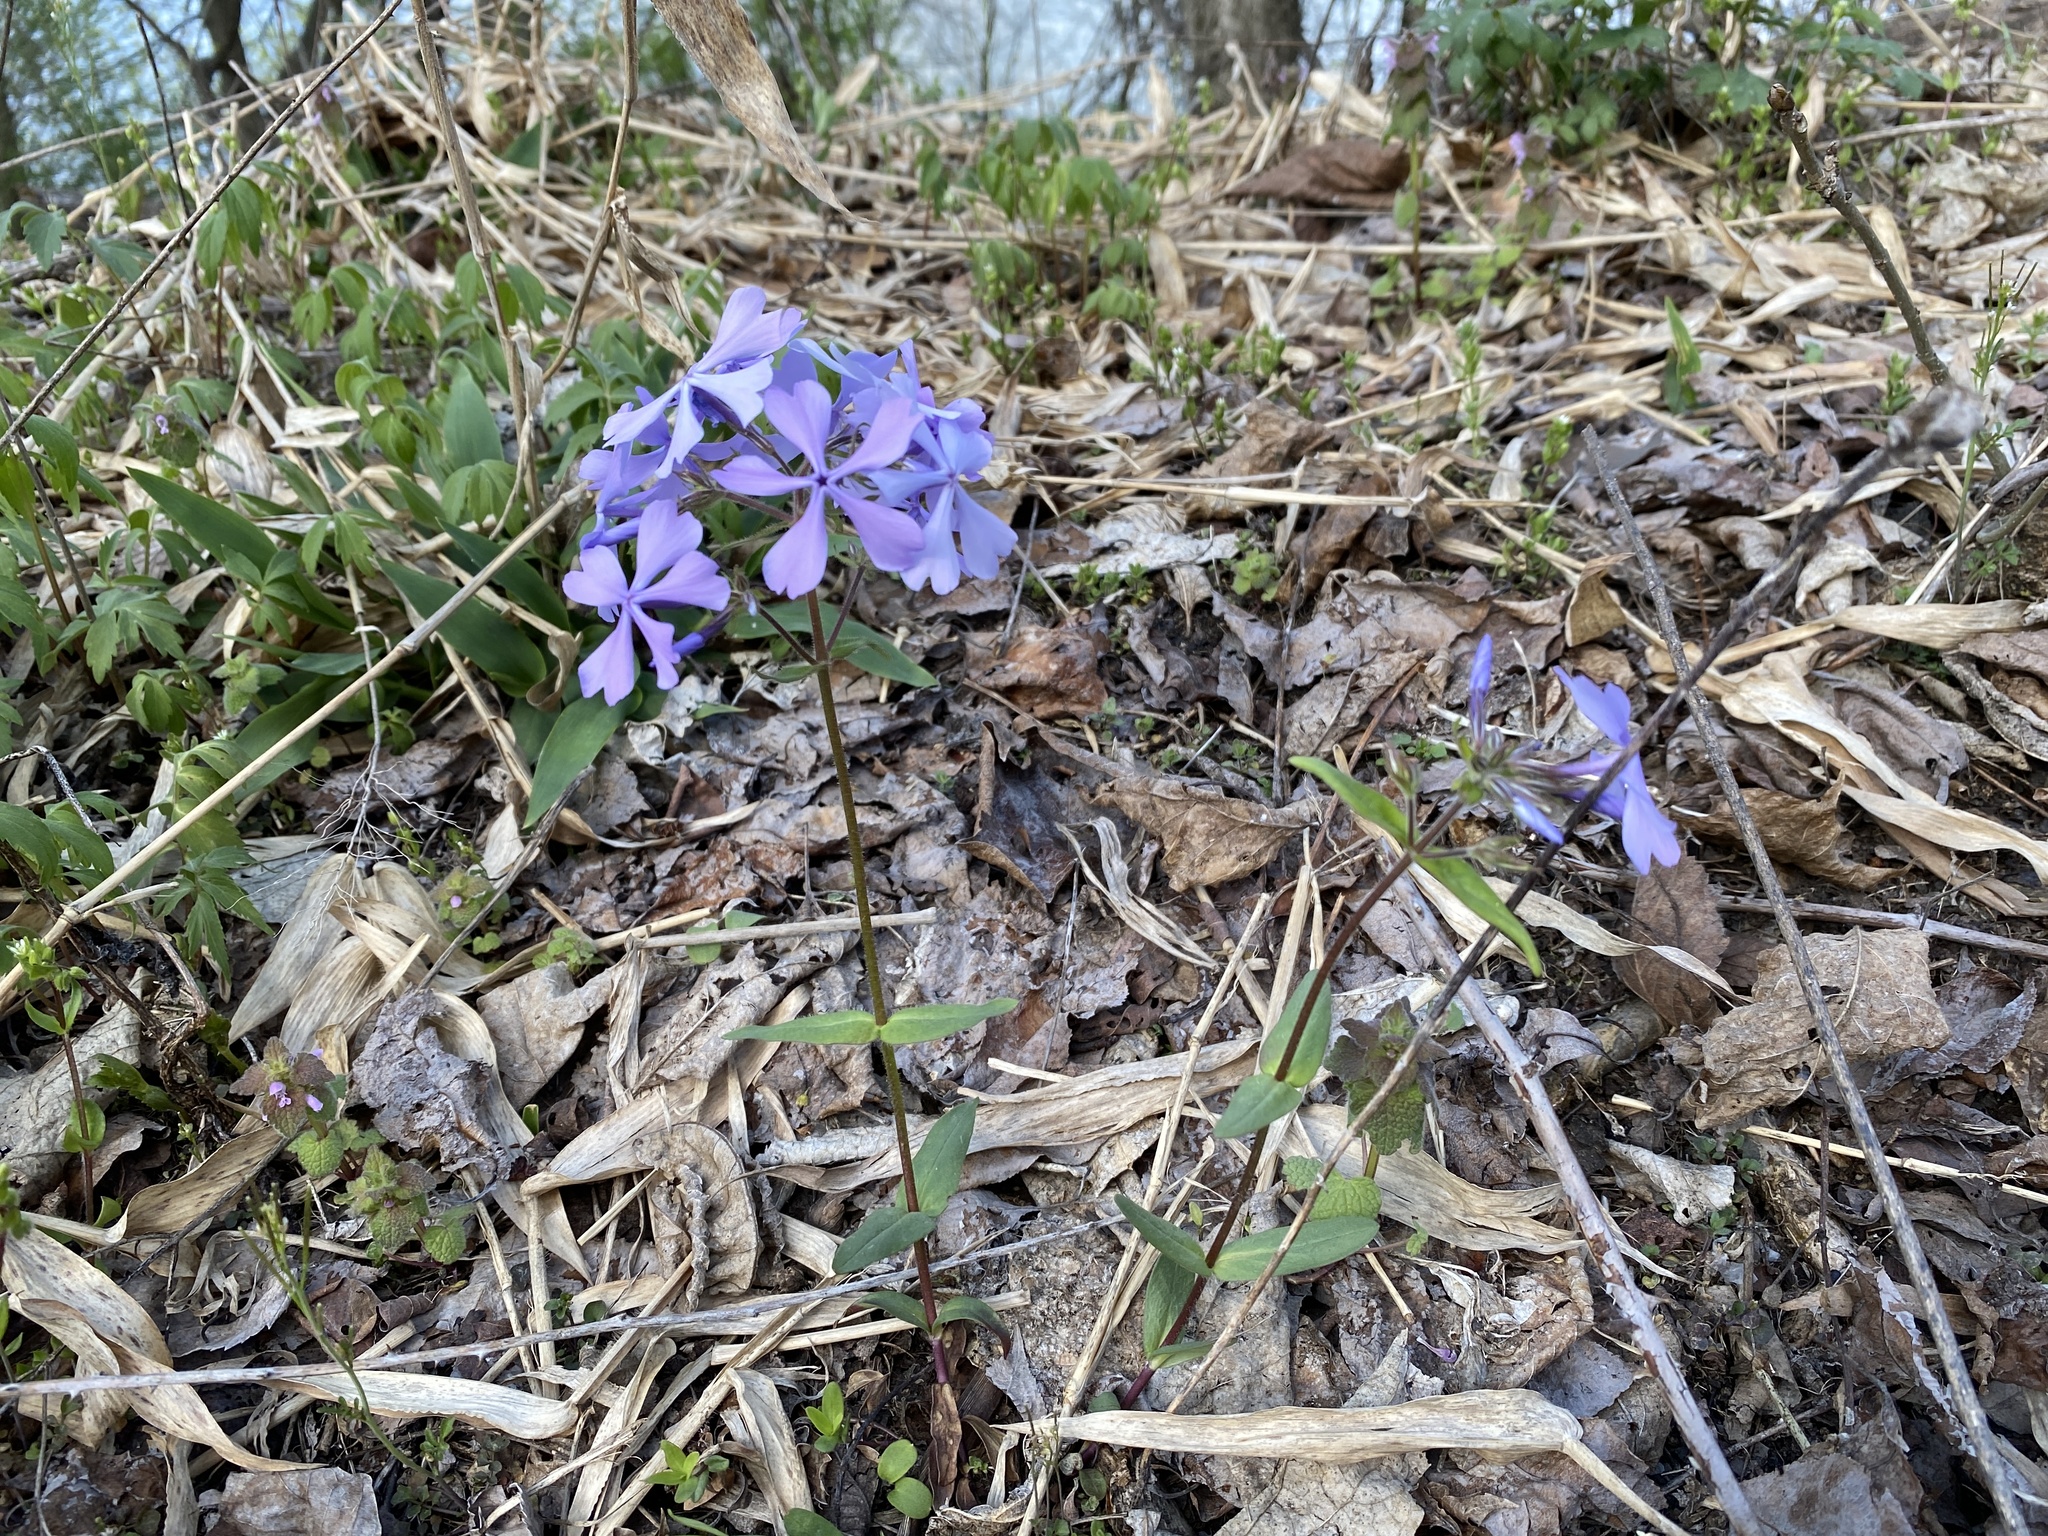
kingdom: Plantae
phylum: Tracheophyta
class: Magnoliopsida
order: Ericales
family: Polemoniaceae
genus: Phlox
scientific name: Phlox divaricata
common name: Blue phlox
